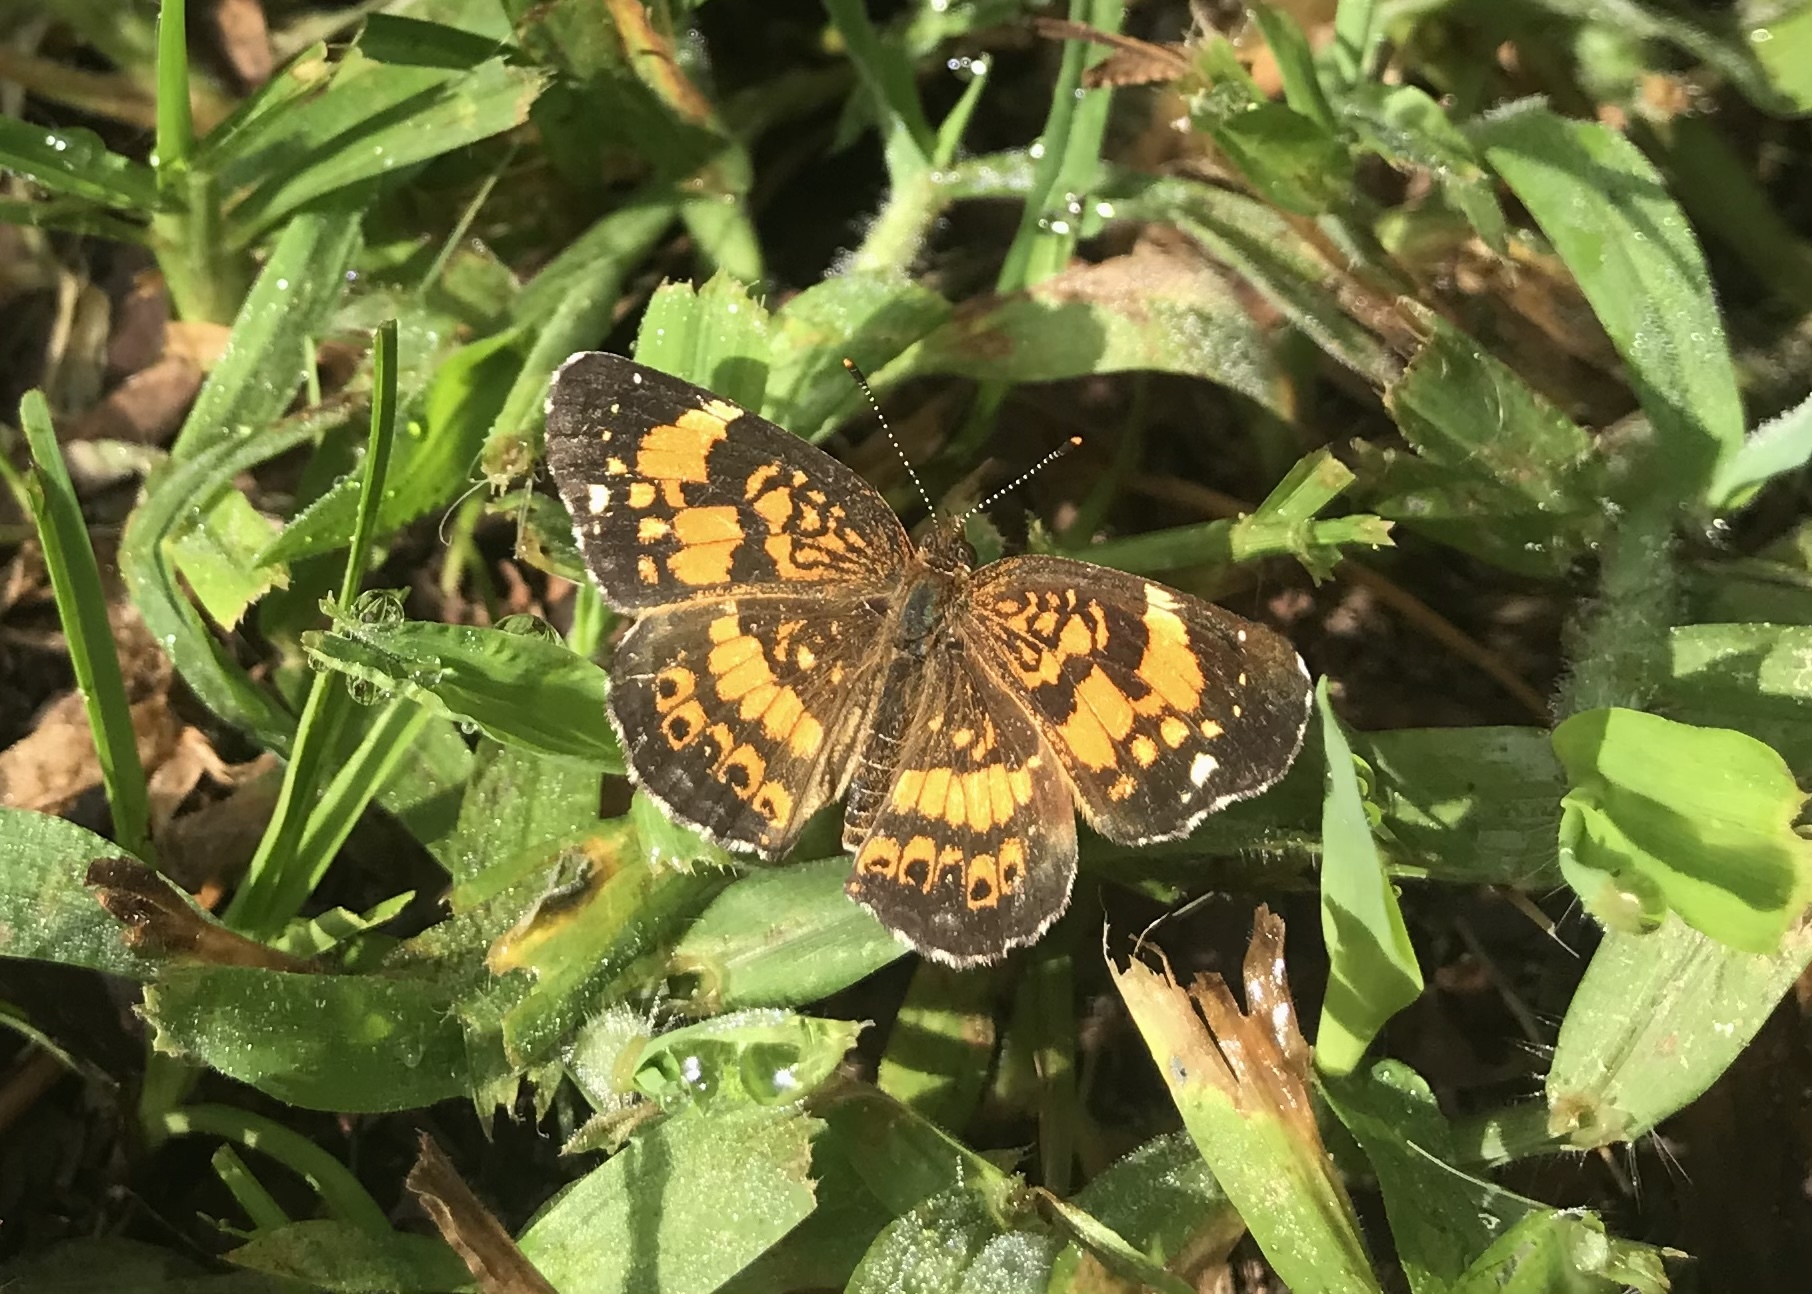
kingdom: Animalia
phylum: Arthropoda
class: Insecta
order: Lepidoptera
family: Nymphalidae
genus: Chlosyne
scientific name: Chlosyne nycteis
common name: Silvery checkerspot
